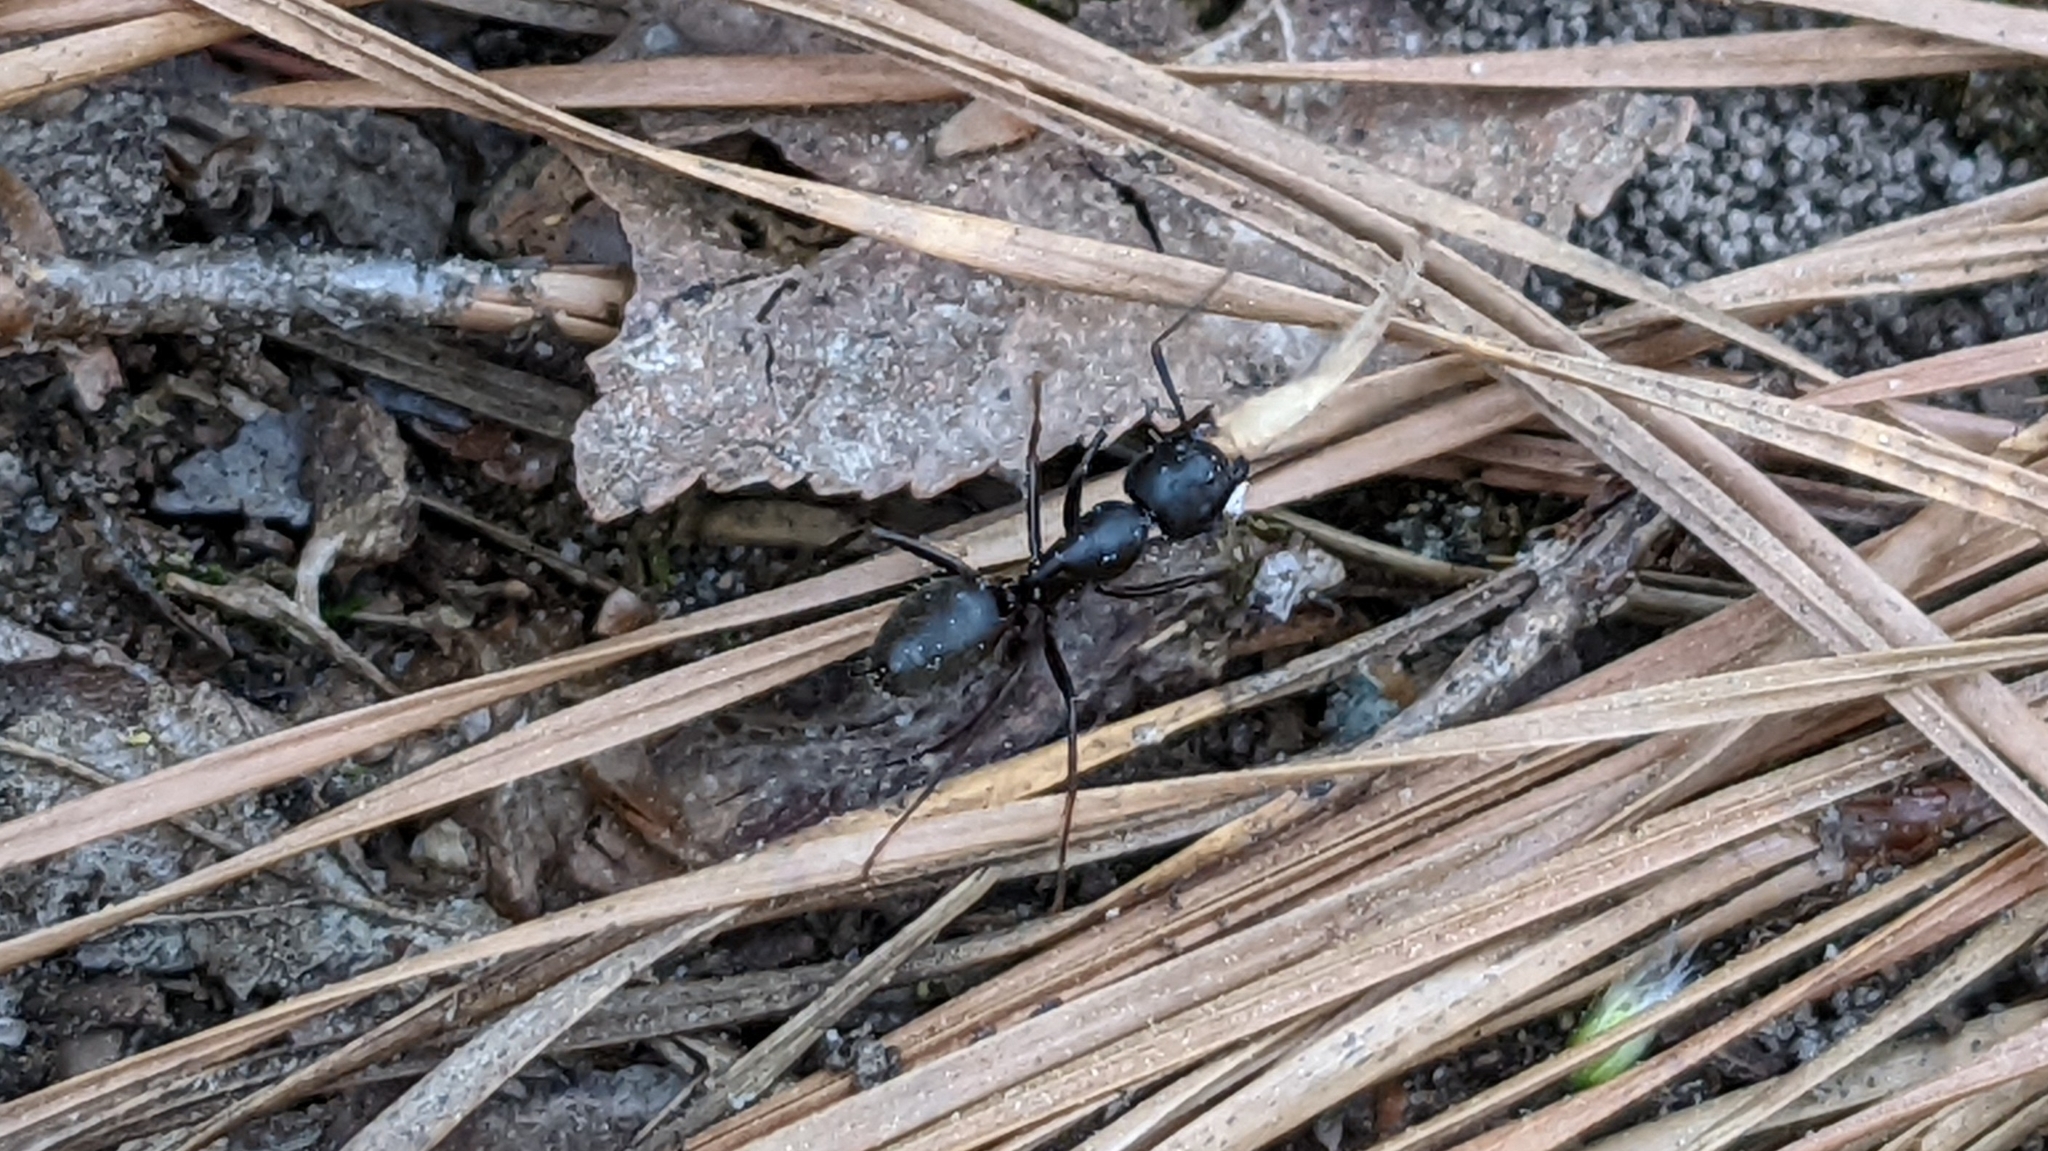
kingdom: Animalia
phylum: Arthropoda
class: Insecta
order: Hymenoptera
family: Formicidae
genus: Camponotus
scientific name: Camponotus pennsylvanicus
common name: Black carpenter ant
